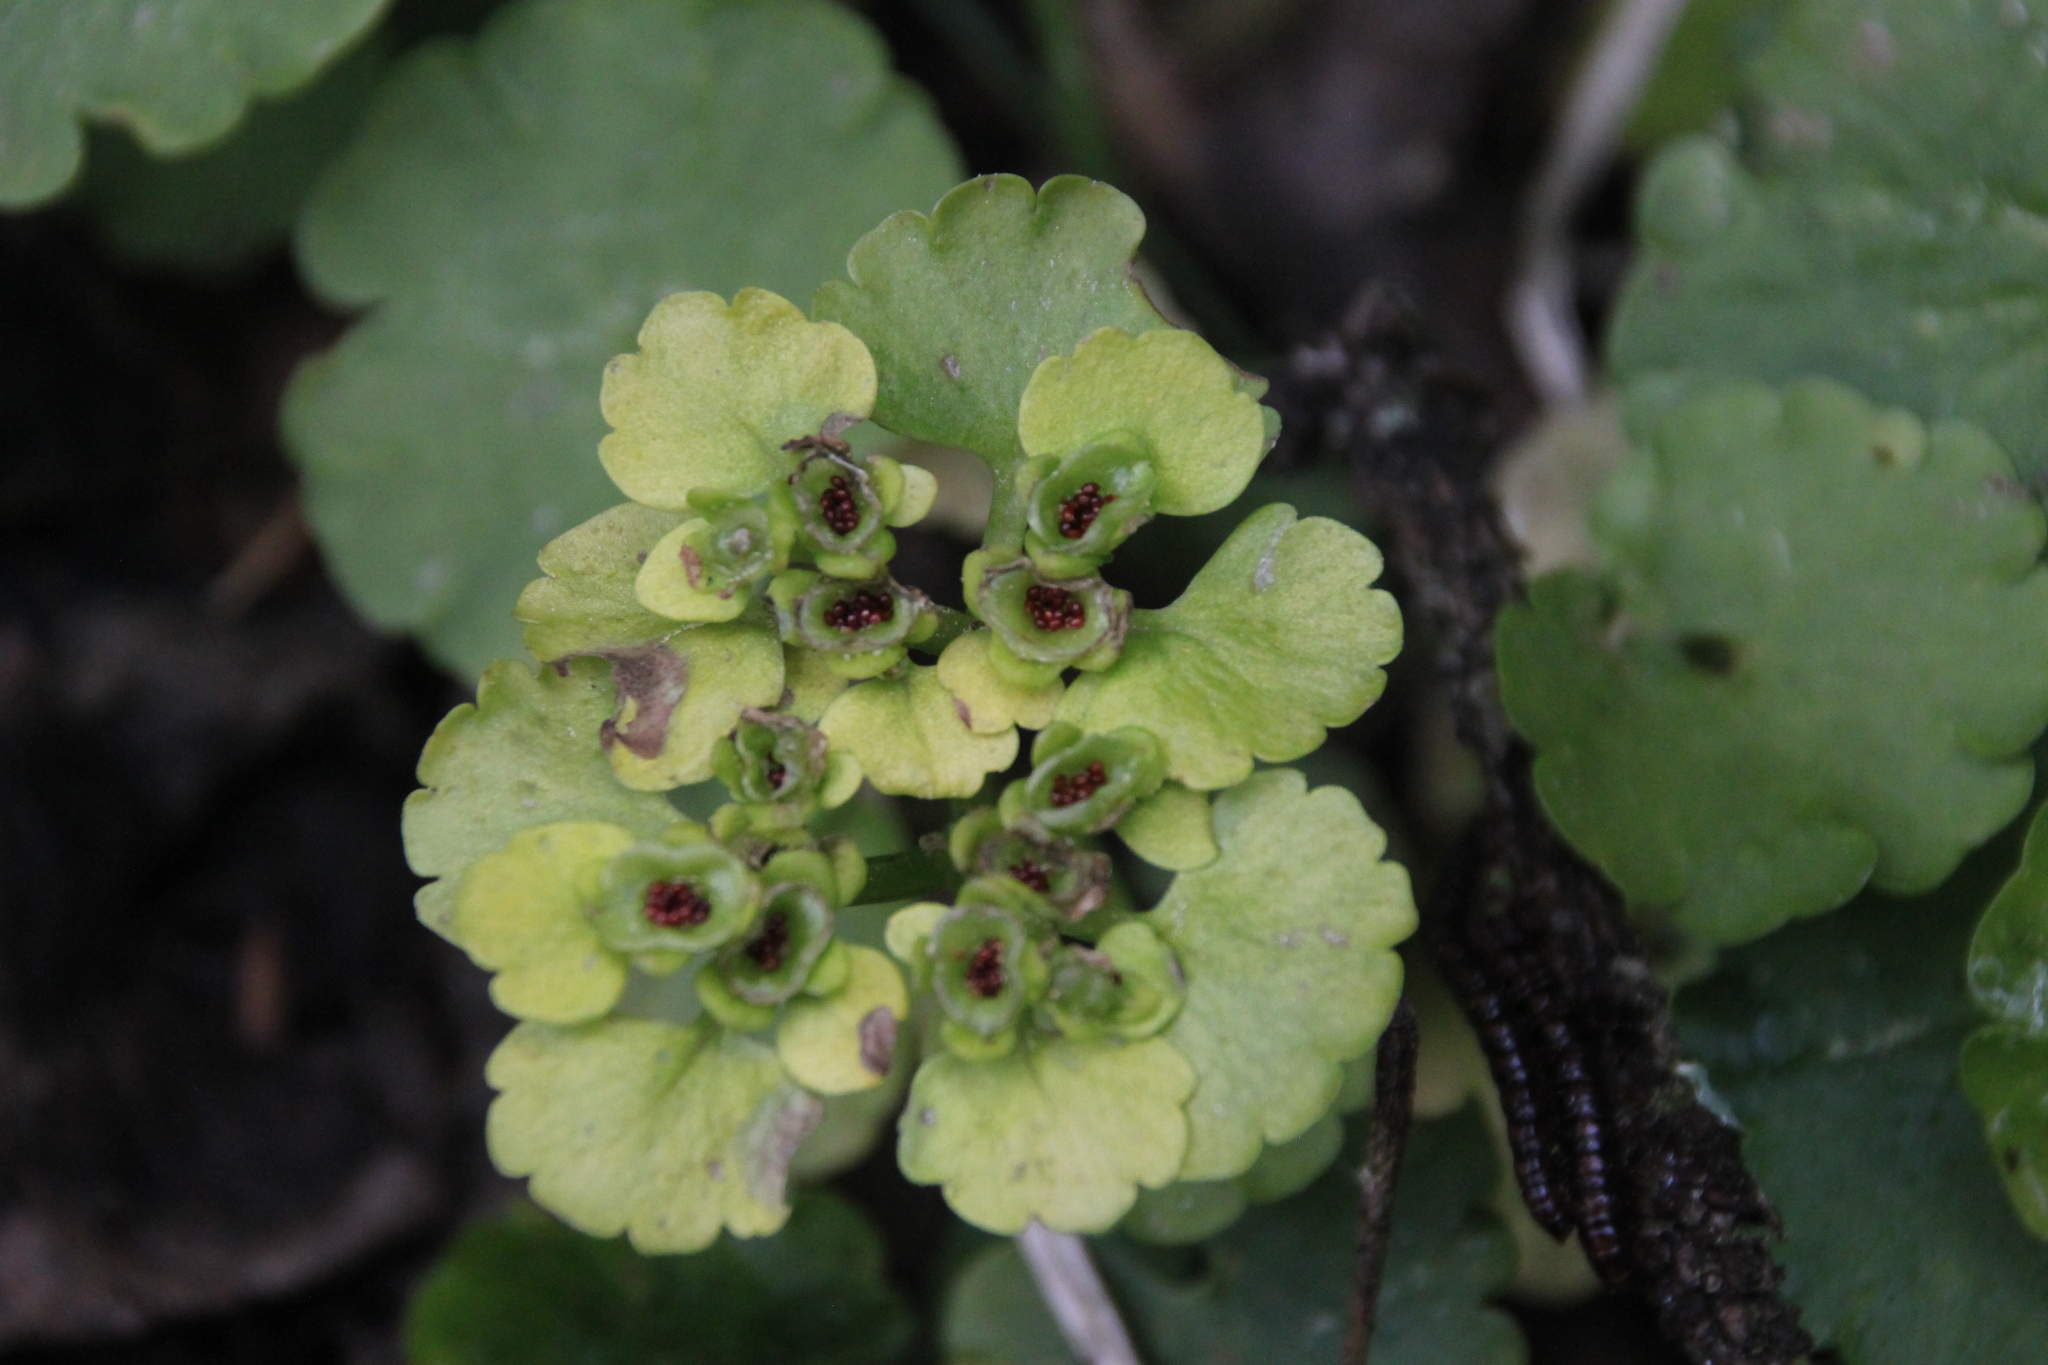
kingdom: Plantae
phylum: Tracheophyta
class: Magnoliopsida
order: Saxifragales
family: Saxifragaceae
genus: Chrysosplenium
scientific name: Chrysosplenium alternifolium
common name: Alternate-leaved golden-saxifrage
